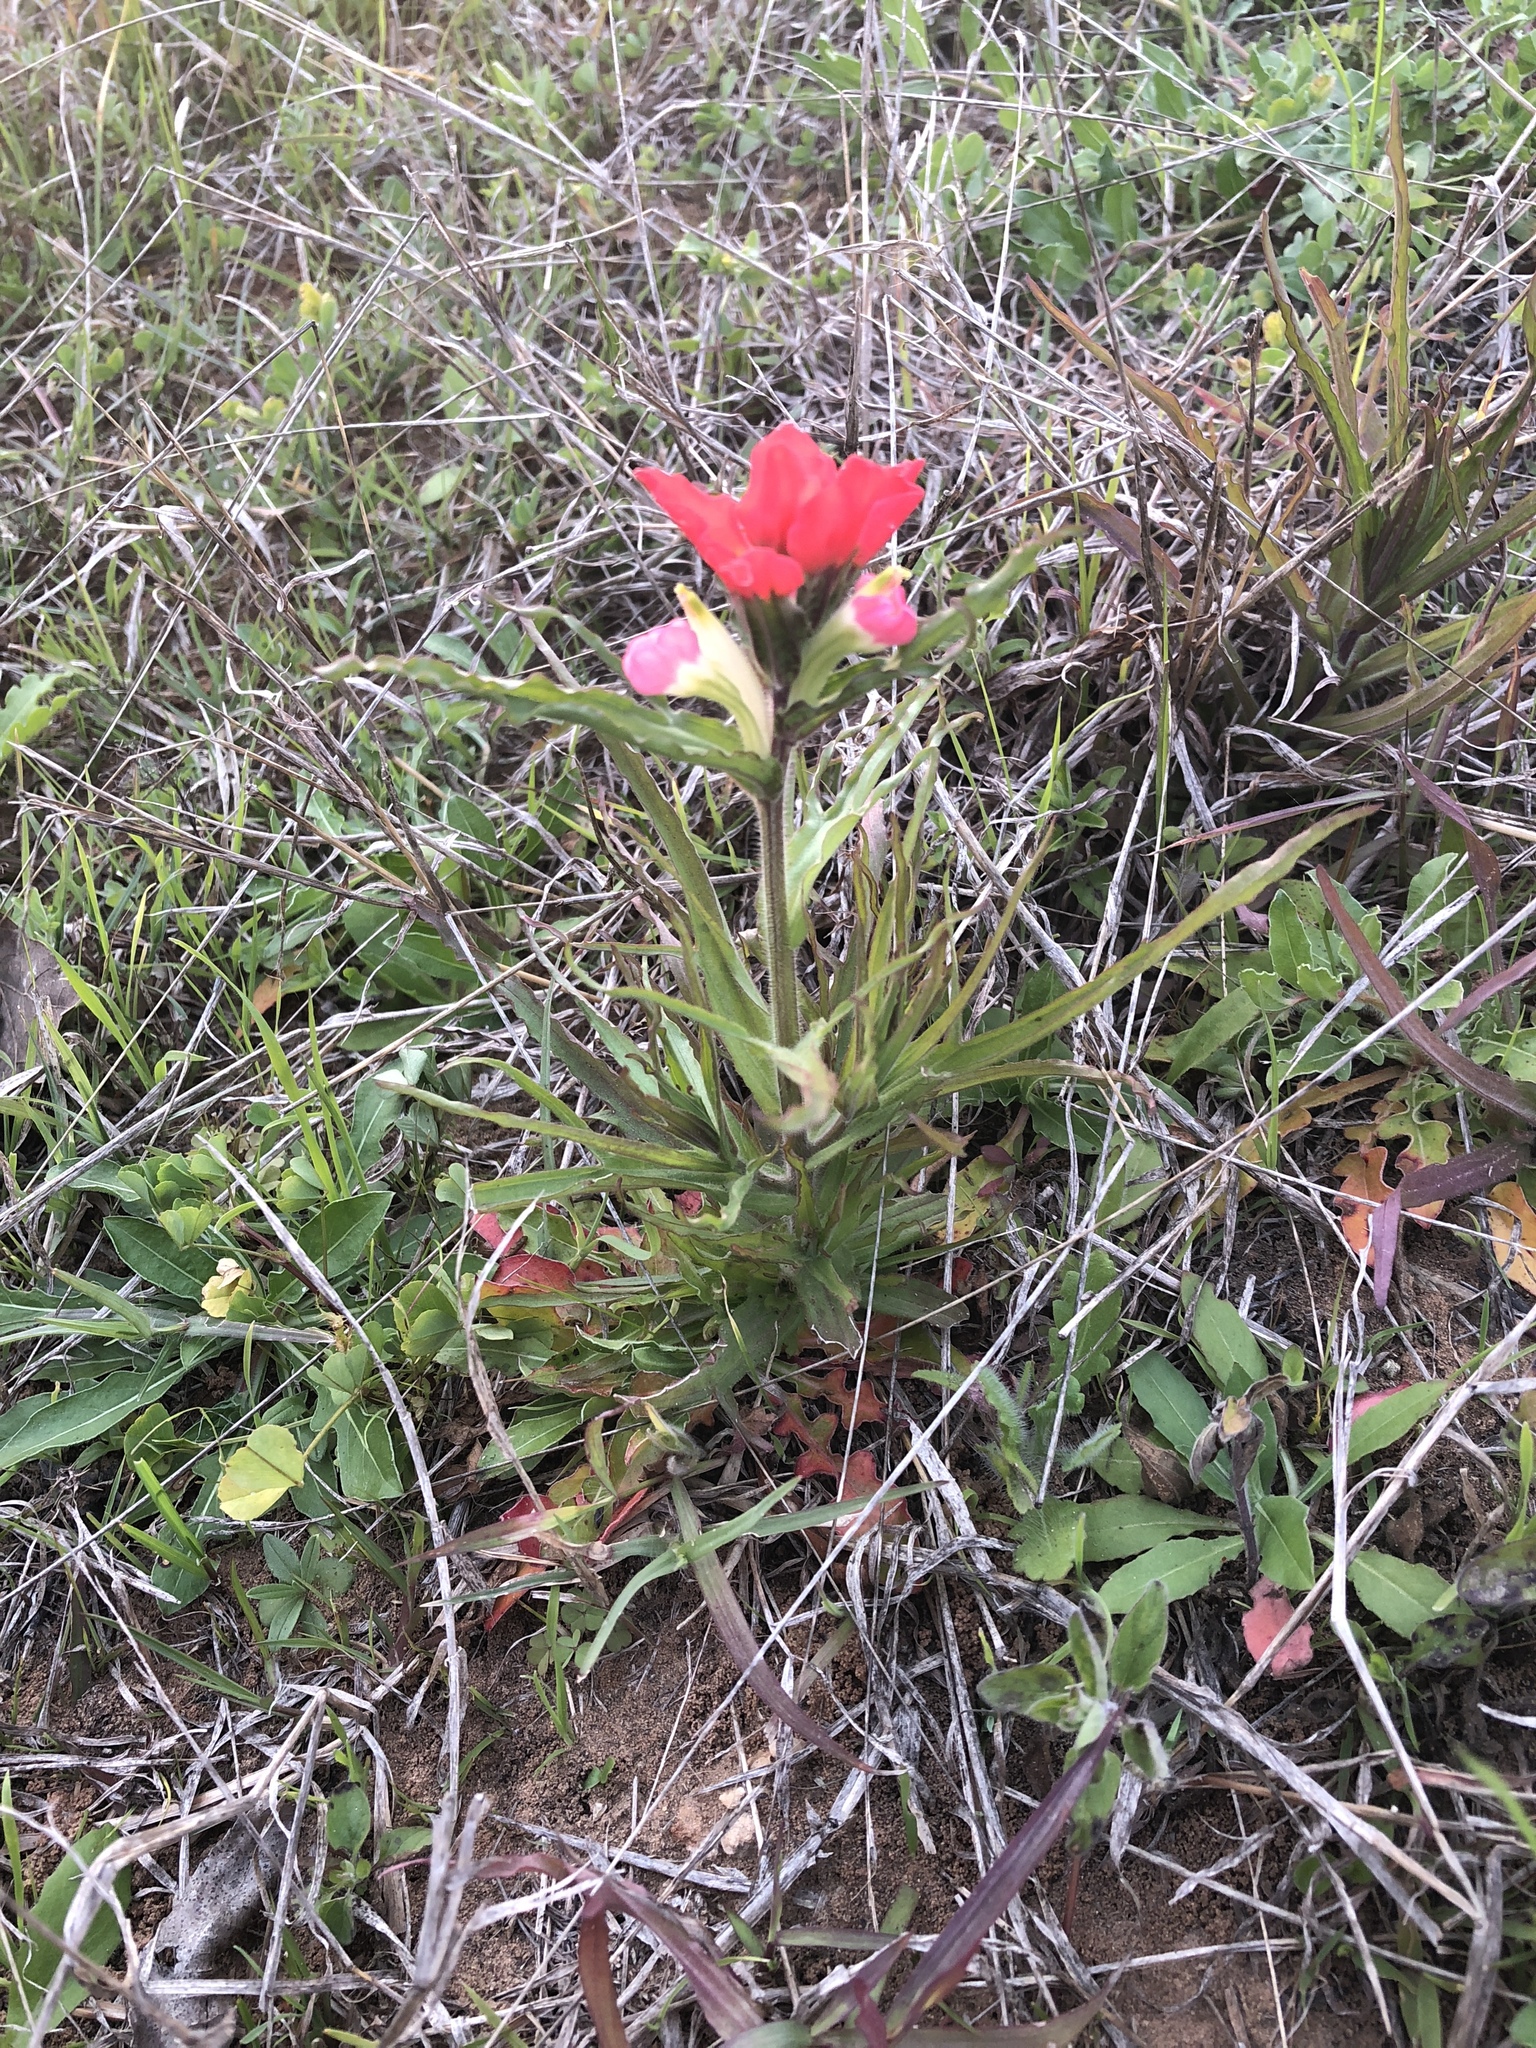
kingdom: Plantae
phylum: Tracheophyta
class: Magnoliopsida
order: Lamiales
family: Orobanchaceae
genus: Castilleja
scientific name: Castilleja indivisa
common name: Texas paintbrush
